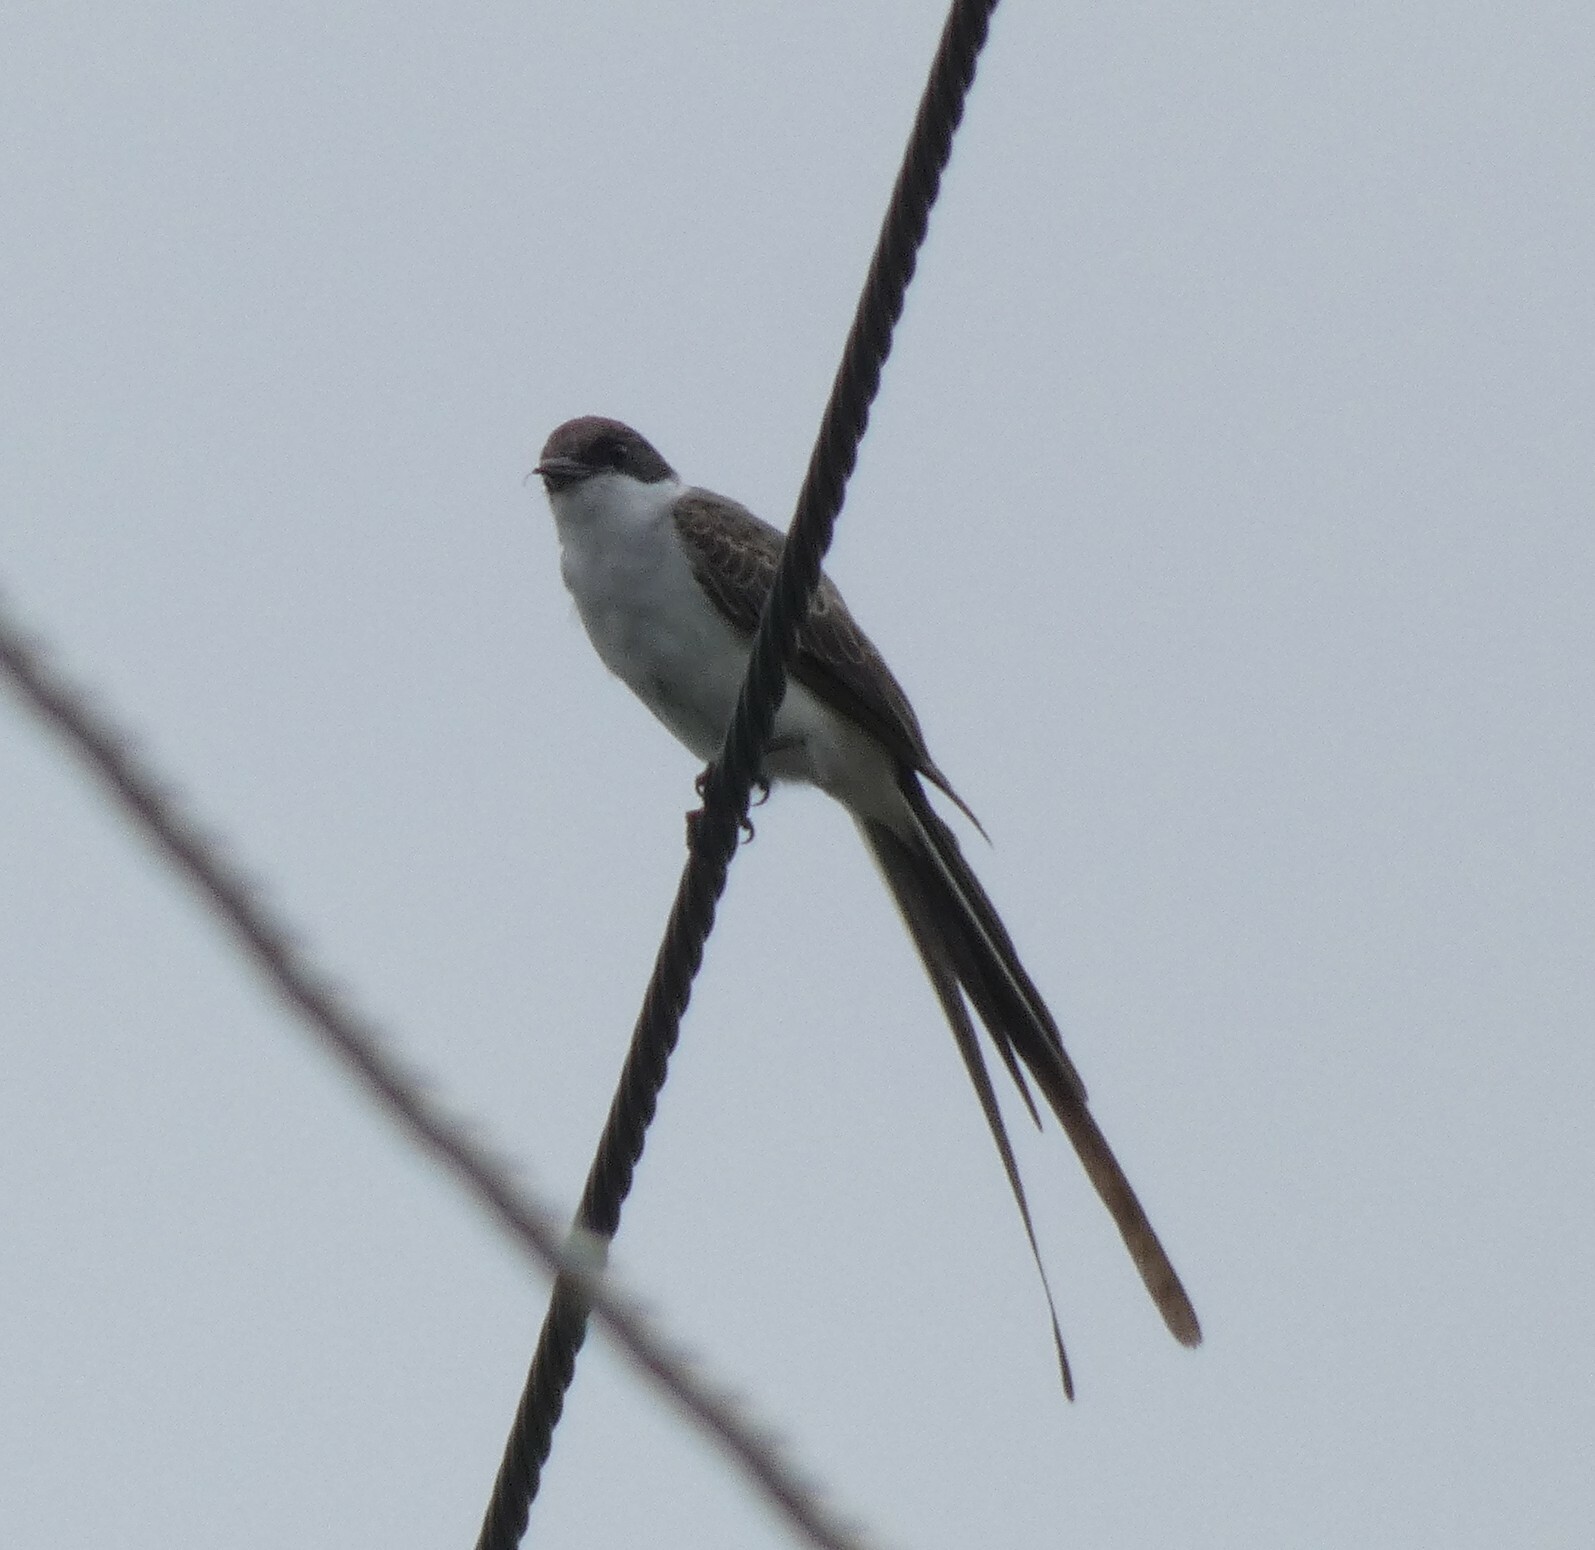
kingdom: Animalia
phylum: Chordata
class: Aves
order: Passeriformes
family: Tyrannidae
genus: Tyrannus
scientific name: Tyrannus savana
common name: Fork-tailed flycatcher
